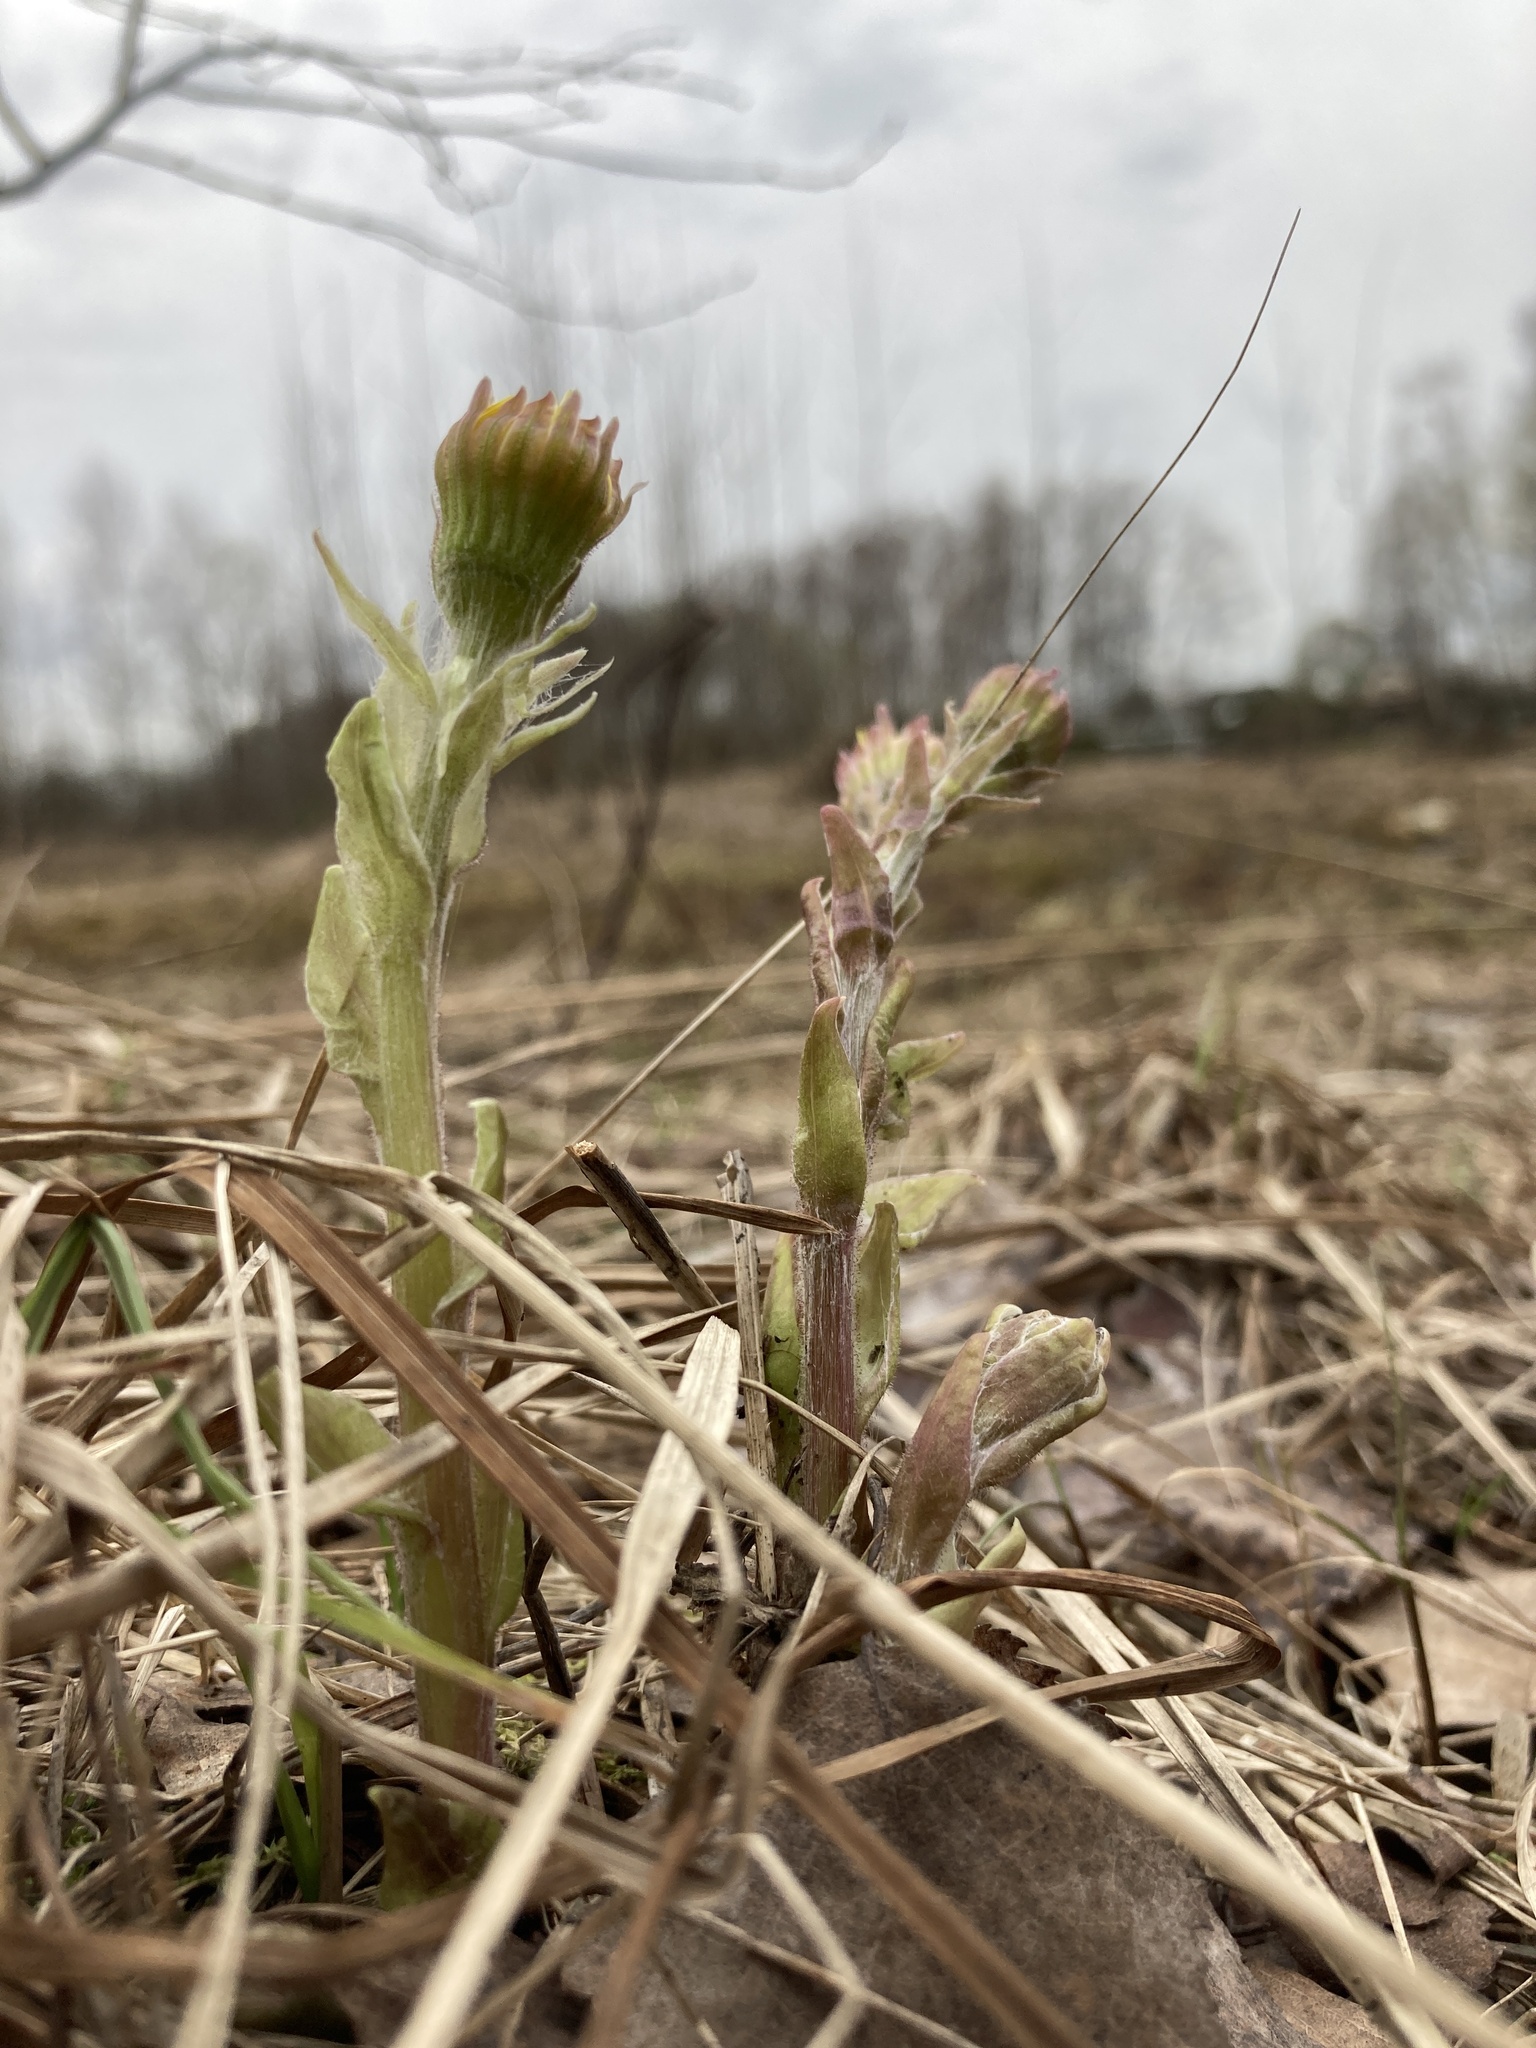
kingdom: Plantae
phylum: Tracheophyta
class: Magnoliopsida
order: Asterales
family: Asteraceae
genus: Tussilago
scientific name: Tussilago farfara
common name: Coltsfoot
